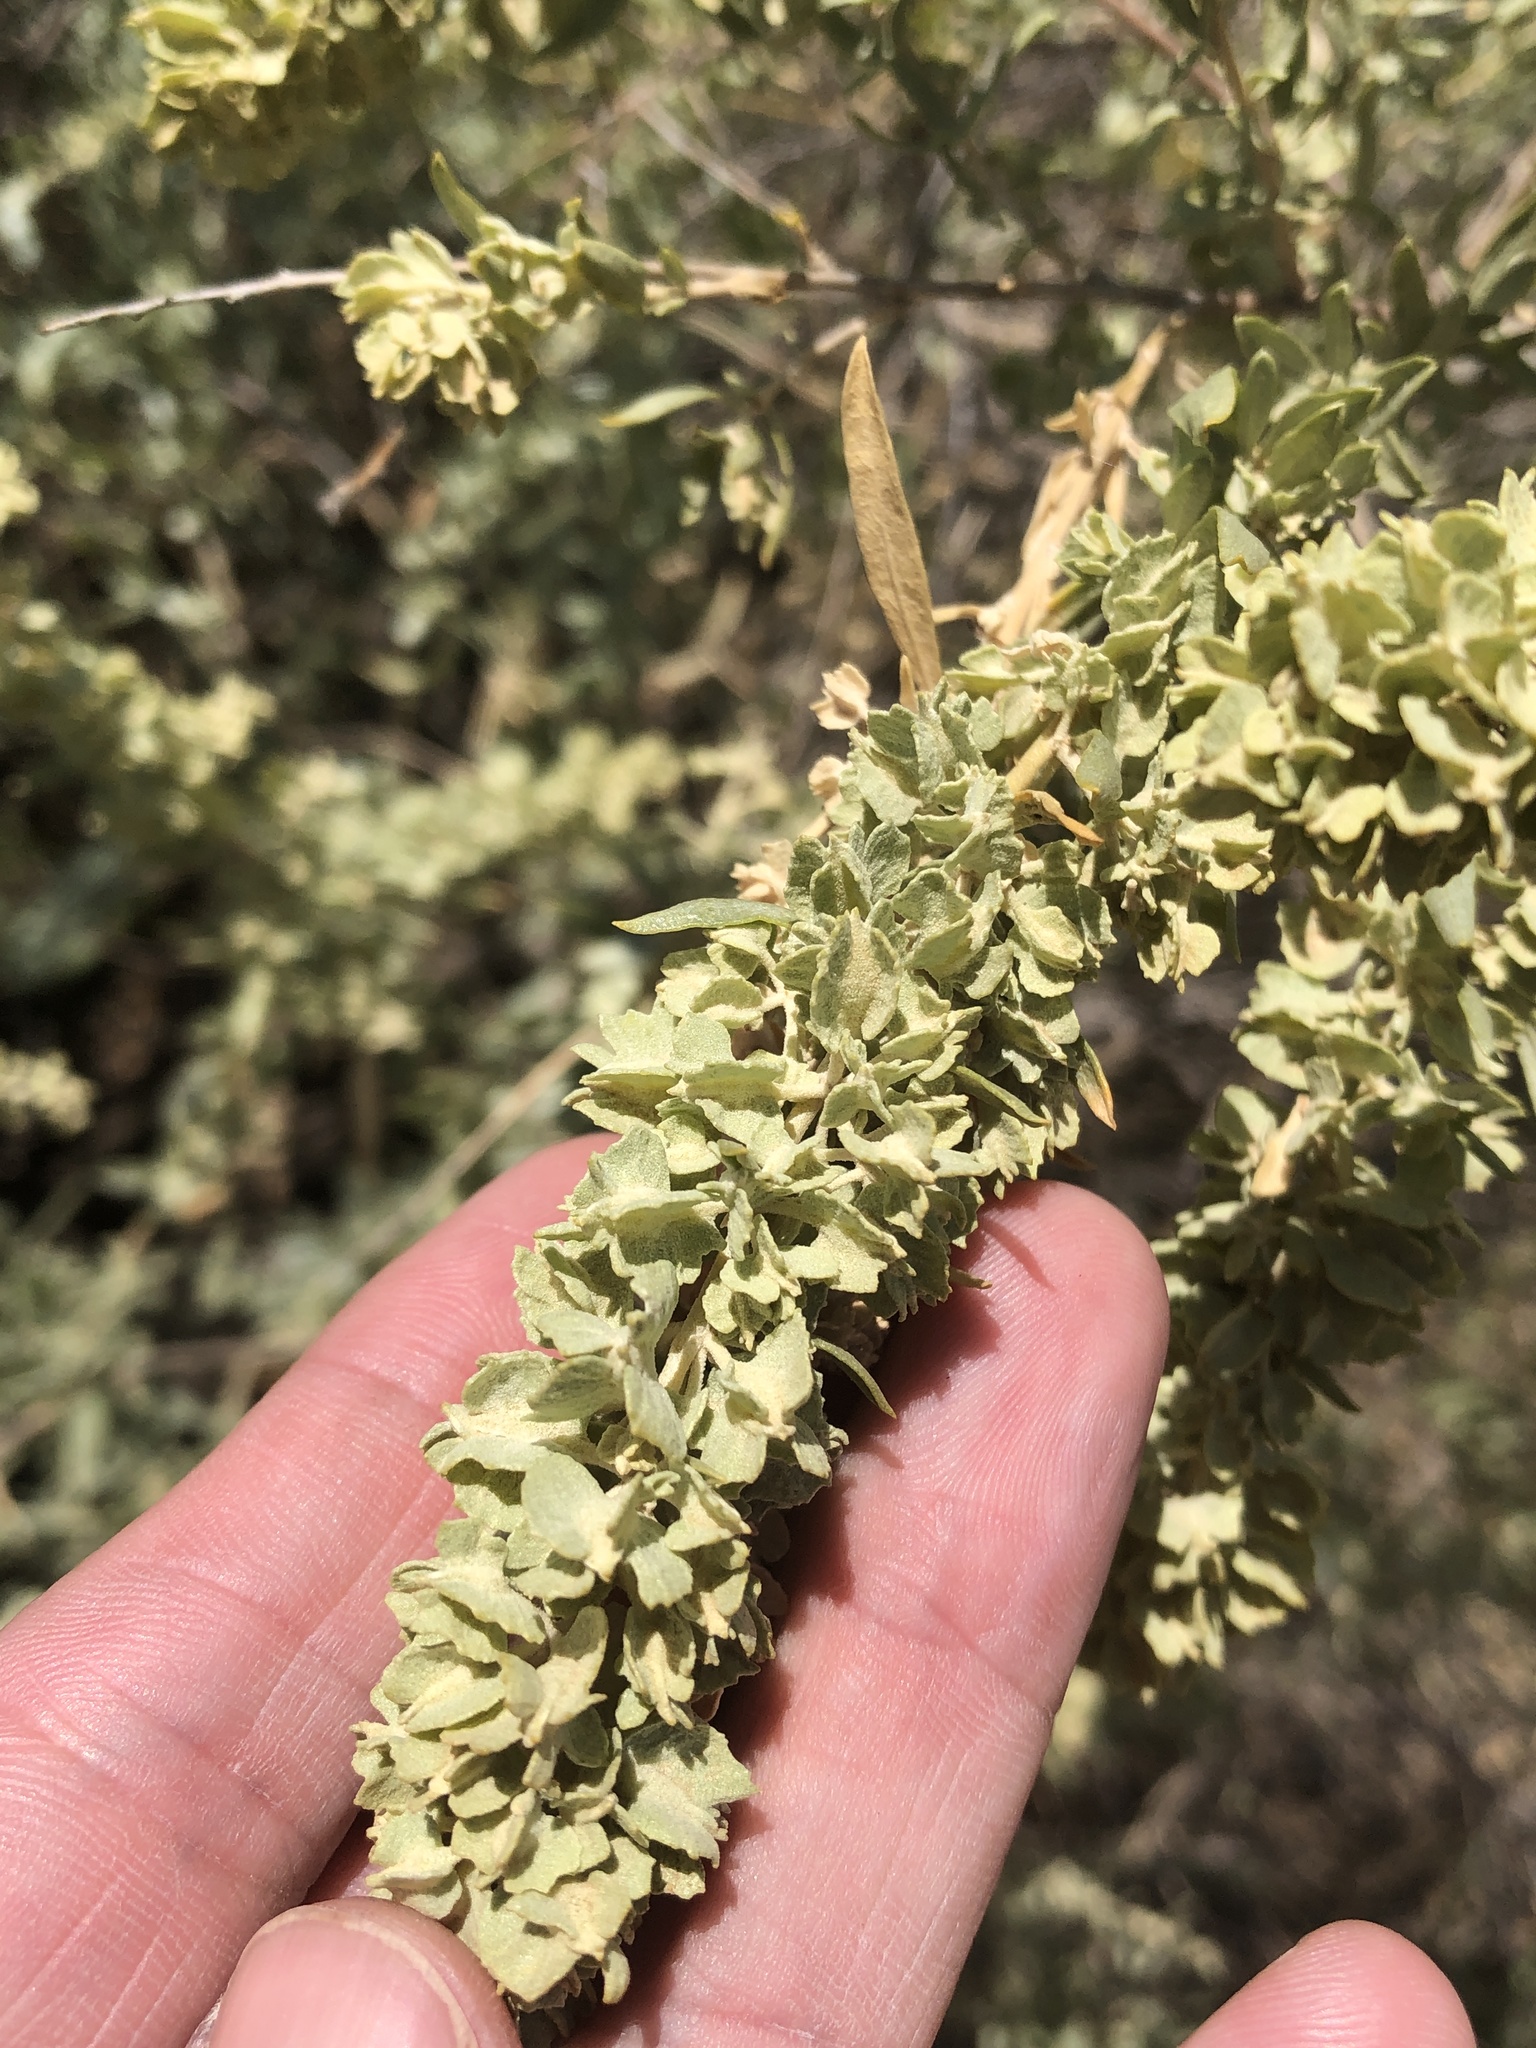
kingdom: Plantae
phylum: Tracheophyta
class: Magnoliopsida
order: Caryophyllales
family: Amaranthaceae
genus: Atriplex
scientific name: Atriplex canescens
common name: Four-wing saltbush
